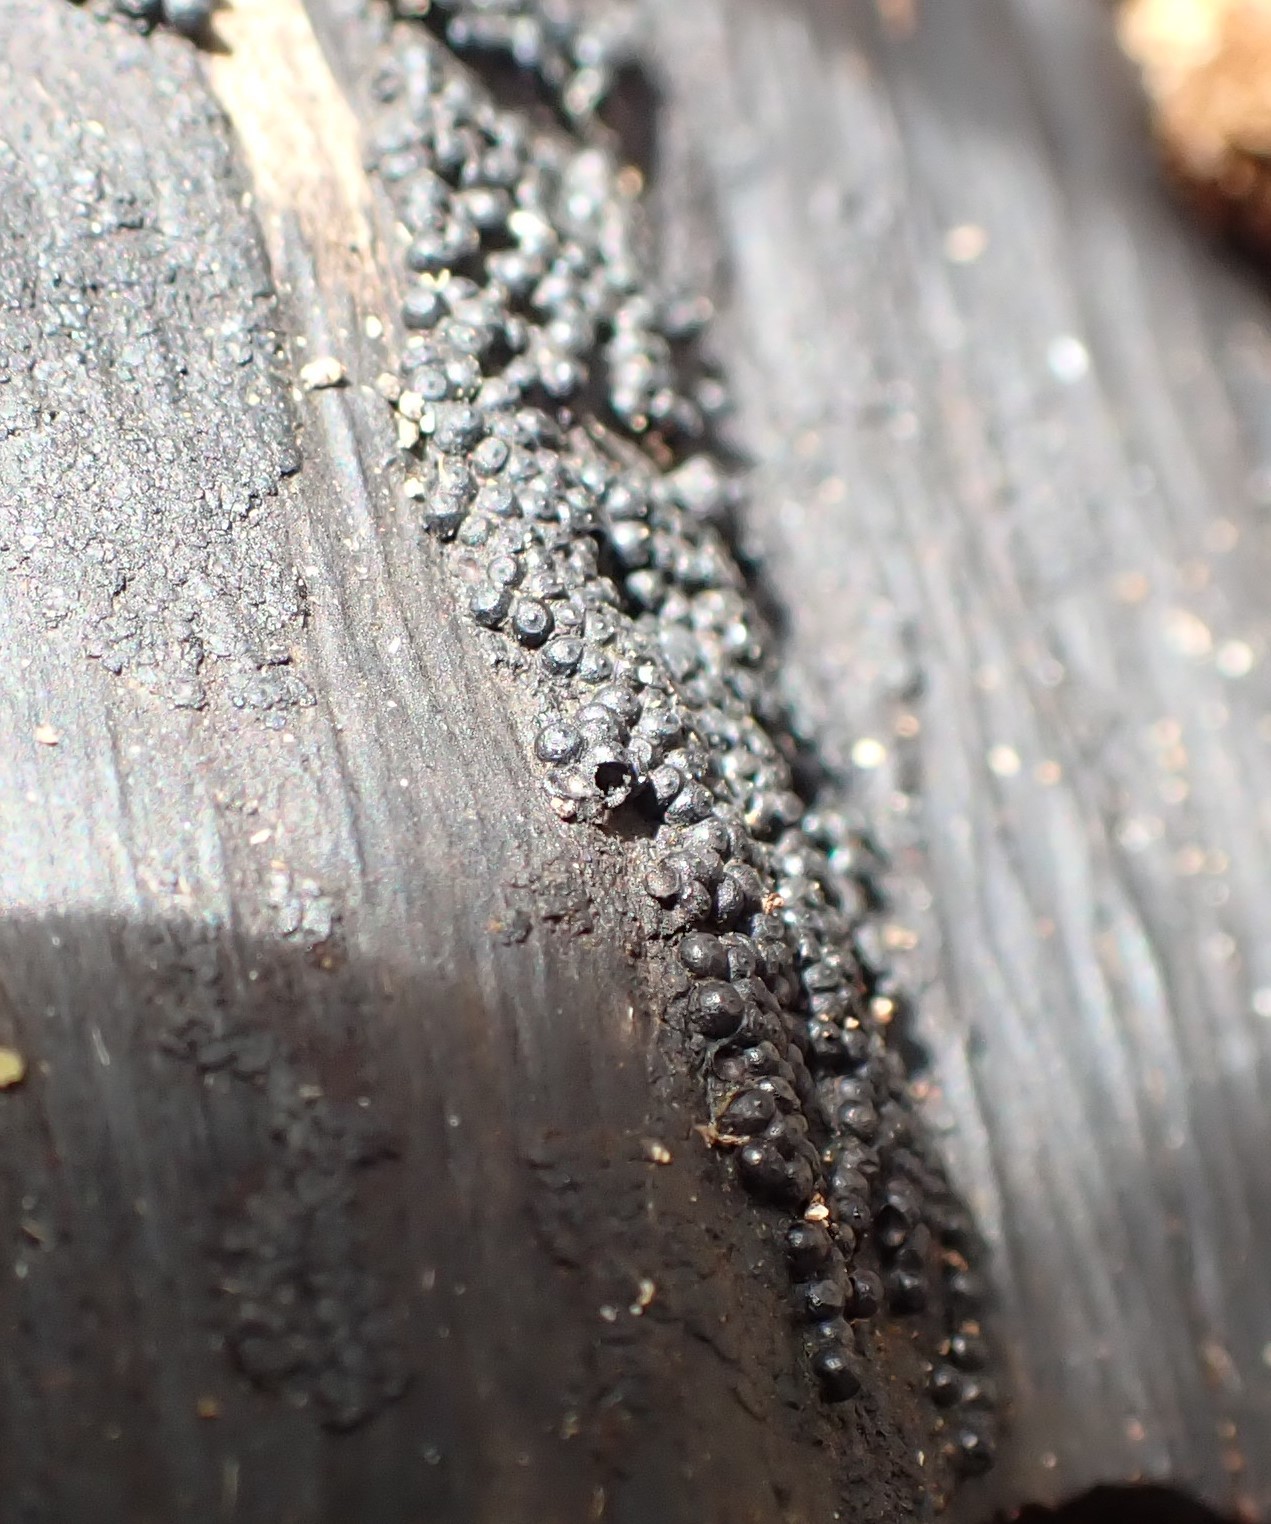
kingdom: Fungi
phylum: Ascomycota
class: Sordariomycetes
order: Xylariales
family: Hypoxylaceae
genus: Annulohypoxylon
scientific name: Annulohypoxylon bovei
